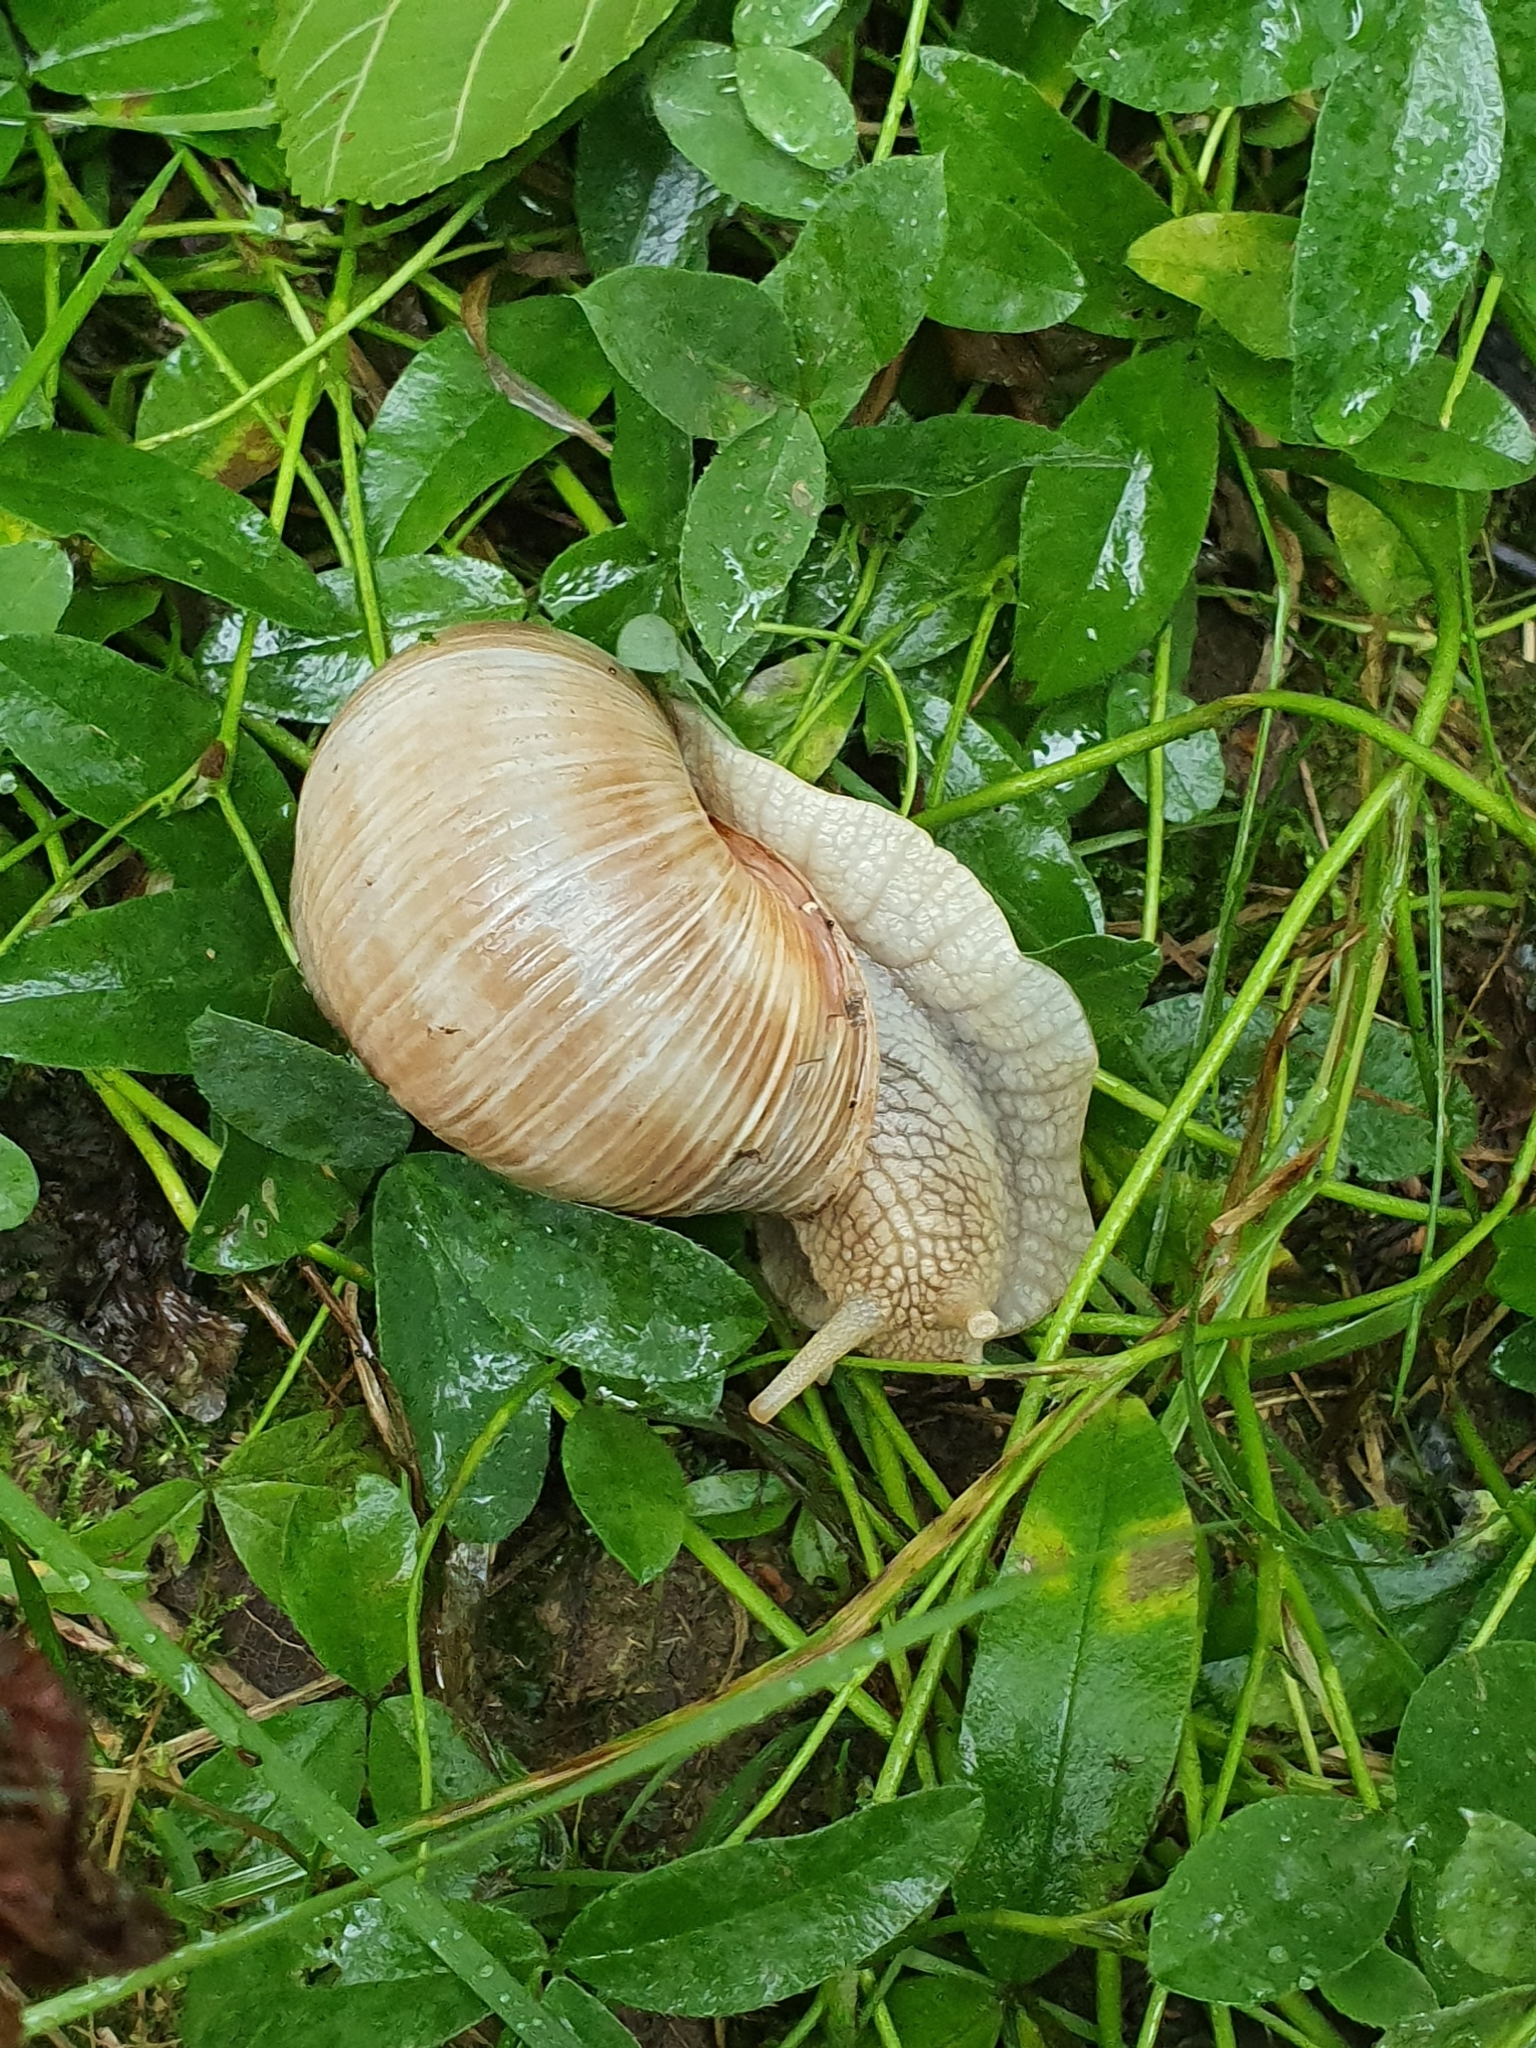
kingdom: Animalia
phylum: Mollusca
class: Gastropoda
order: Stylommatophora
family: Helicidae
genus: Helix
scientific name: Helix pomatia
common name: Roman snail
